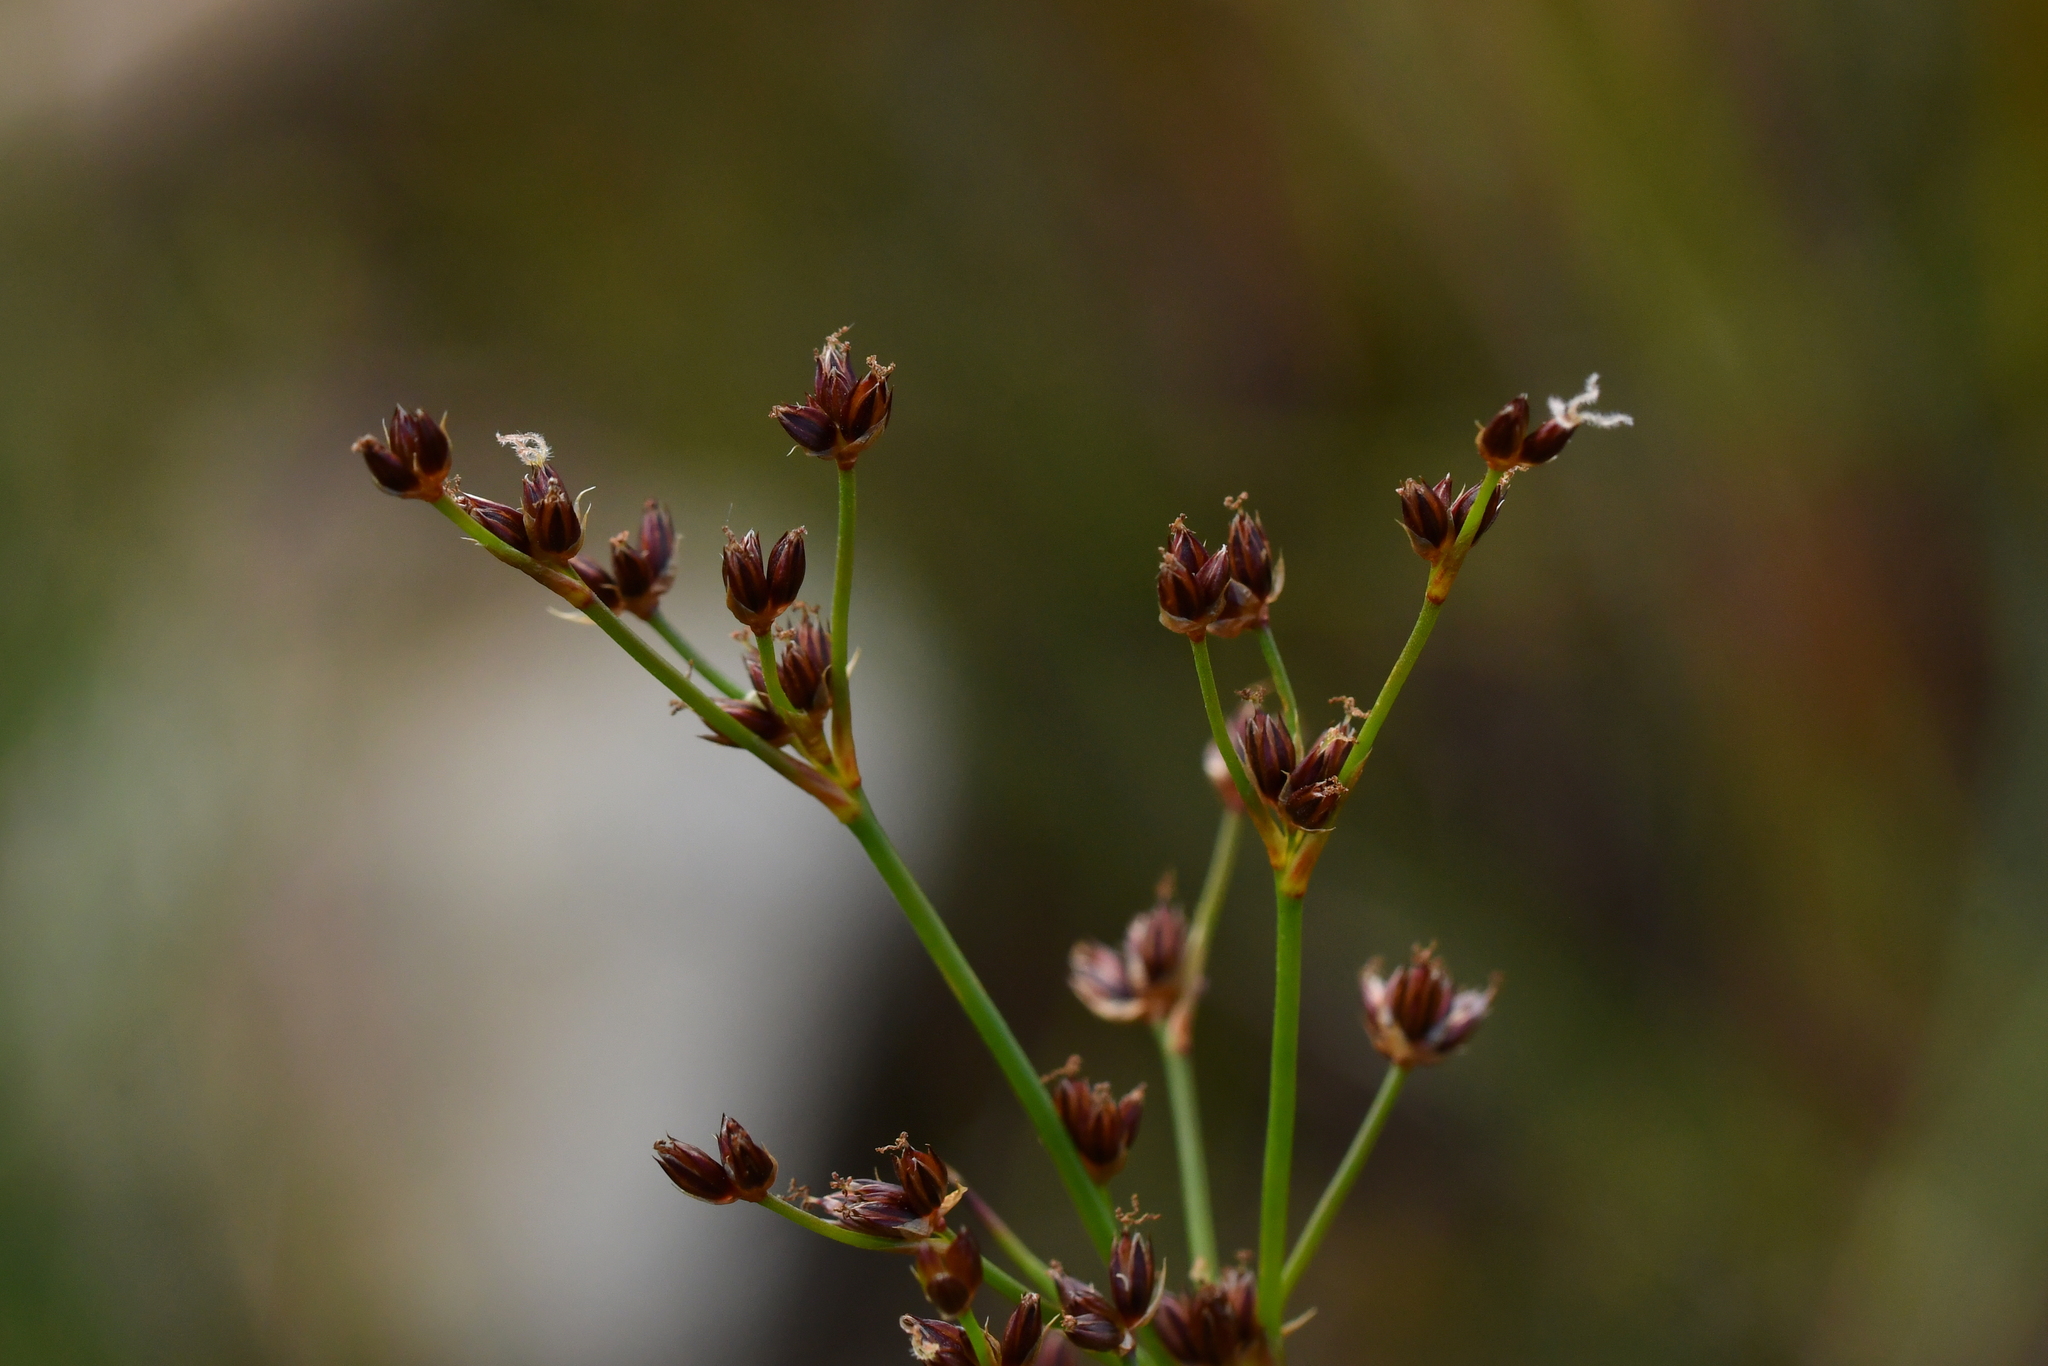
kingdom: Plantae
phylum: Tracheophyta
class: Liliopsida
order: Poales
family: Juncaceae
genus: Juncus
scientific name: Juncus articulatus
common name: Jointed rush
